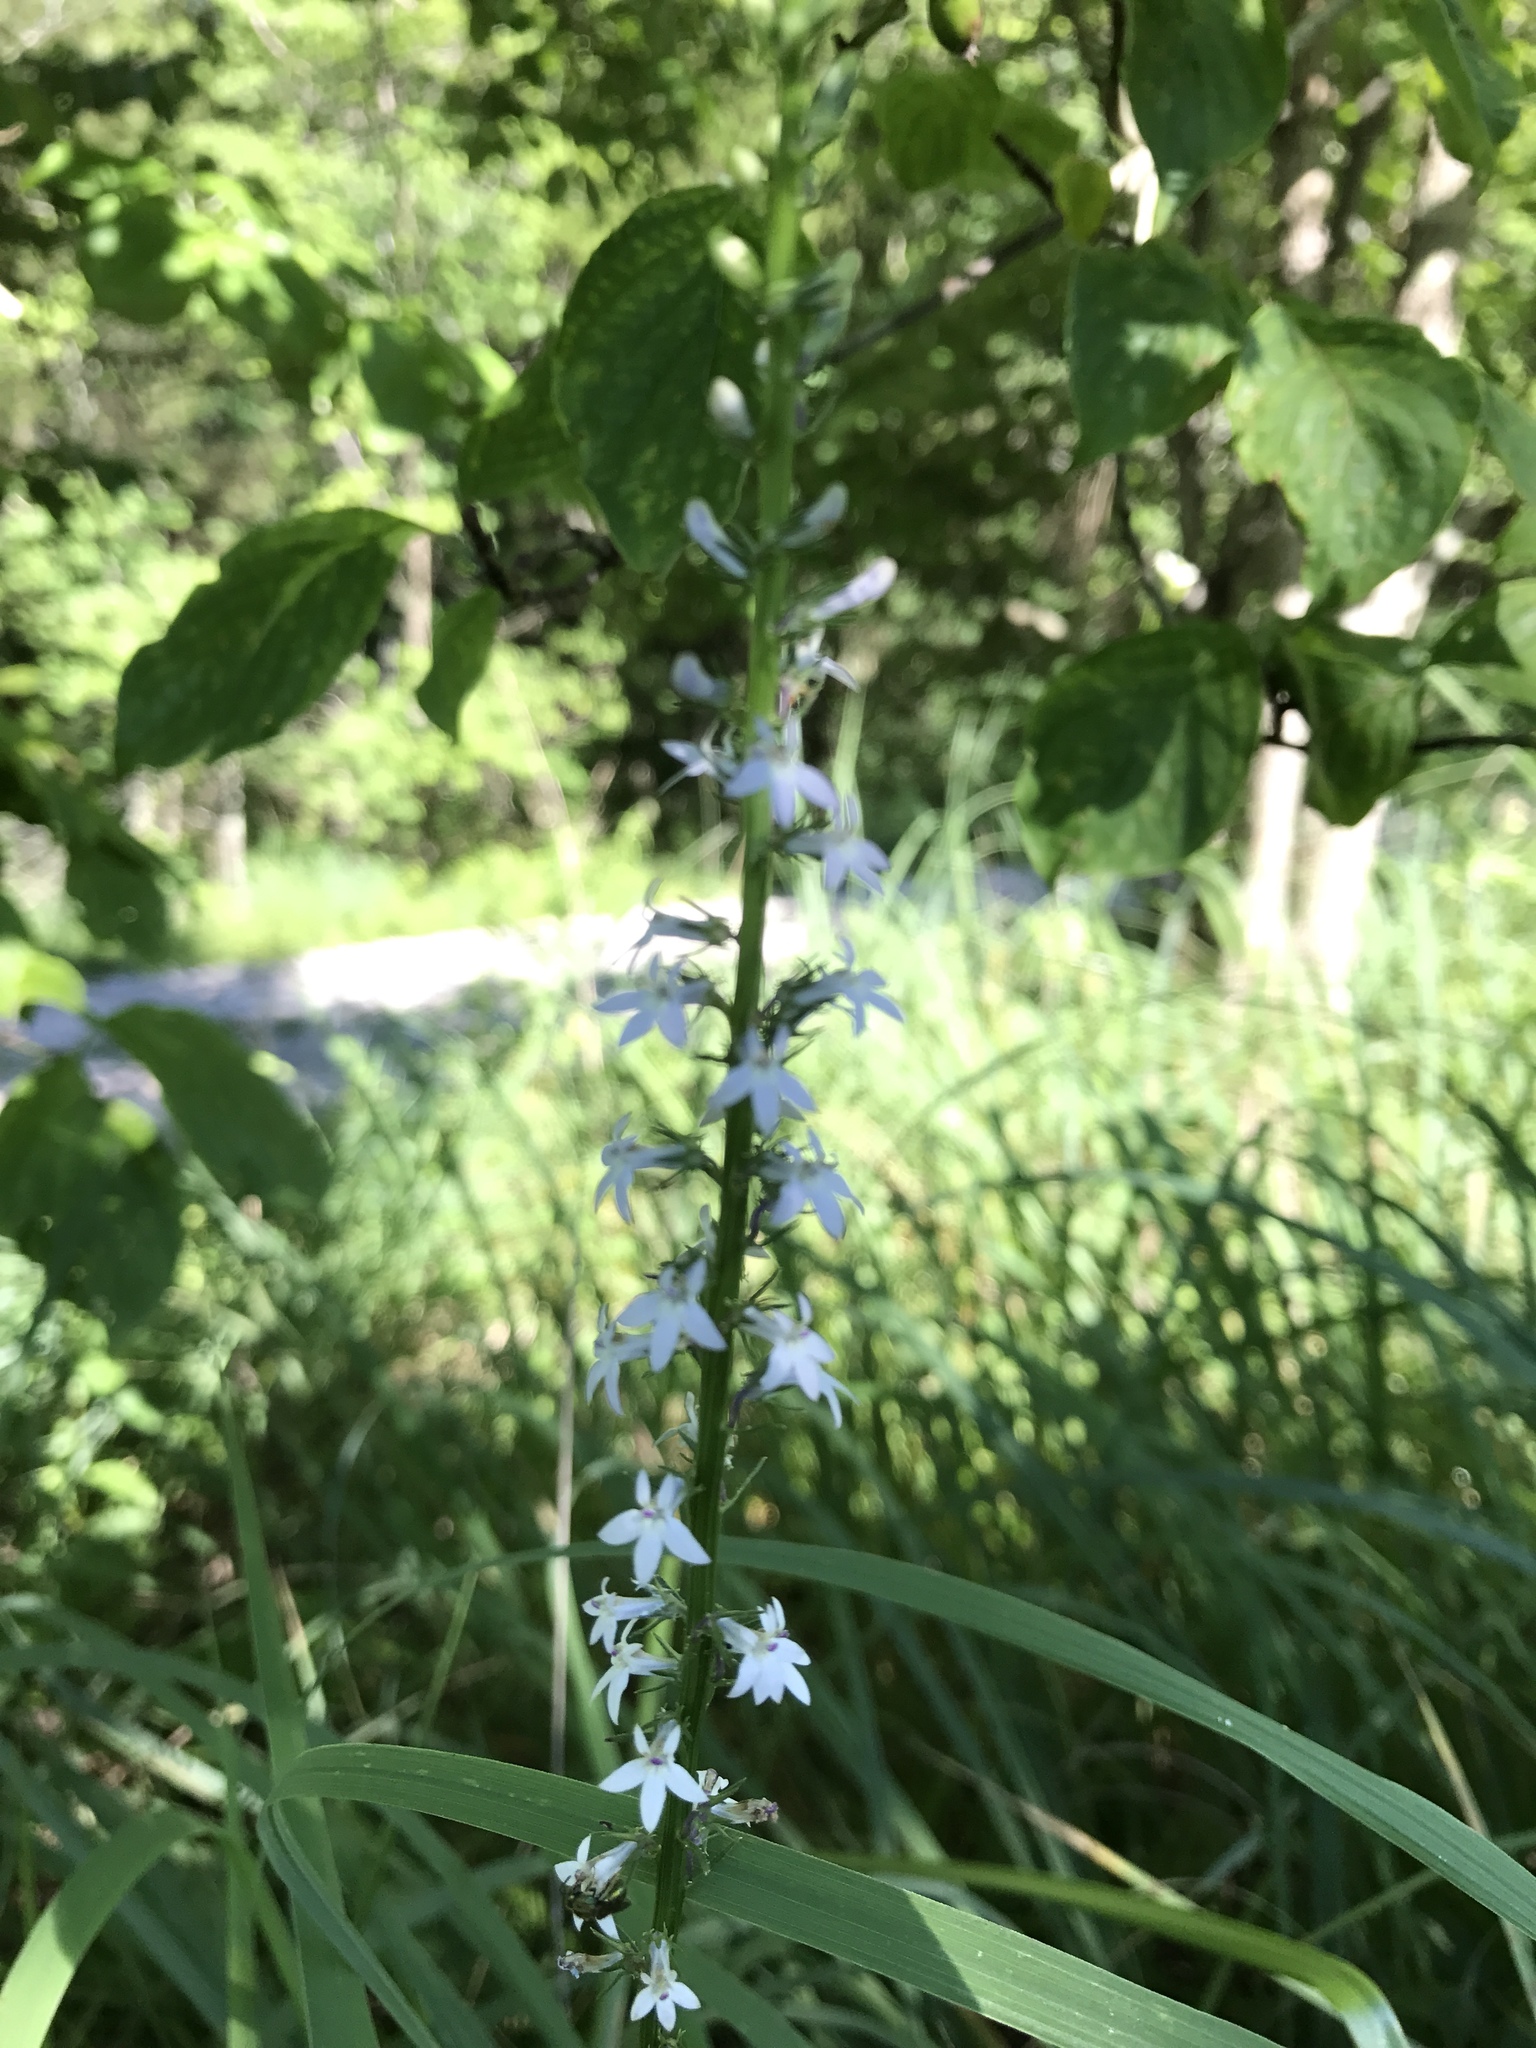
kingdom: Plantae
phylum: Tracheophyta
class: Magnoliopsida
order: Asterales
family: Campanulaceae
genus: Lobelia
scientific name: Lobelia spicata
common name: Pale-spike lobelia
